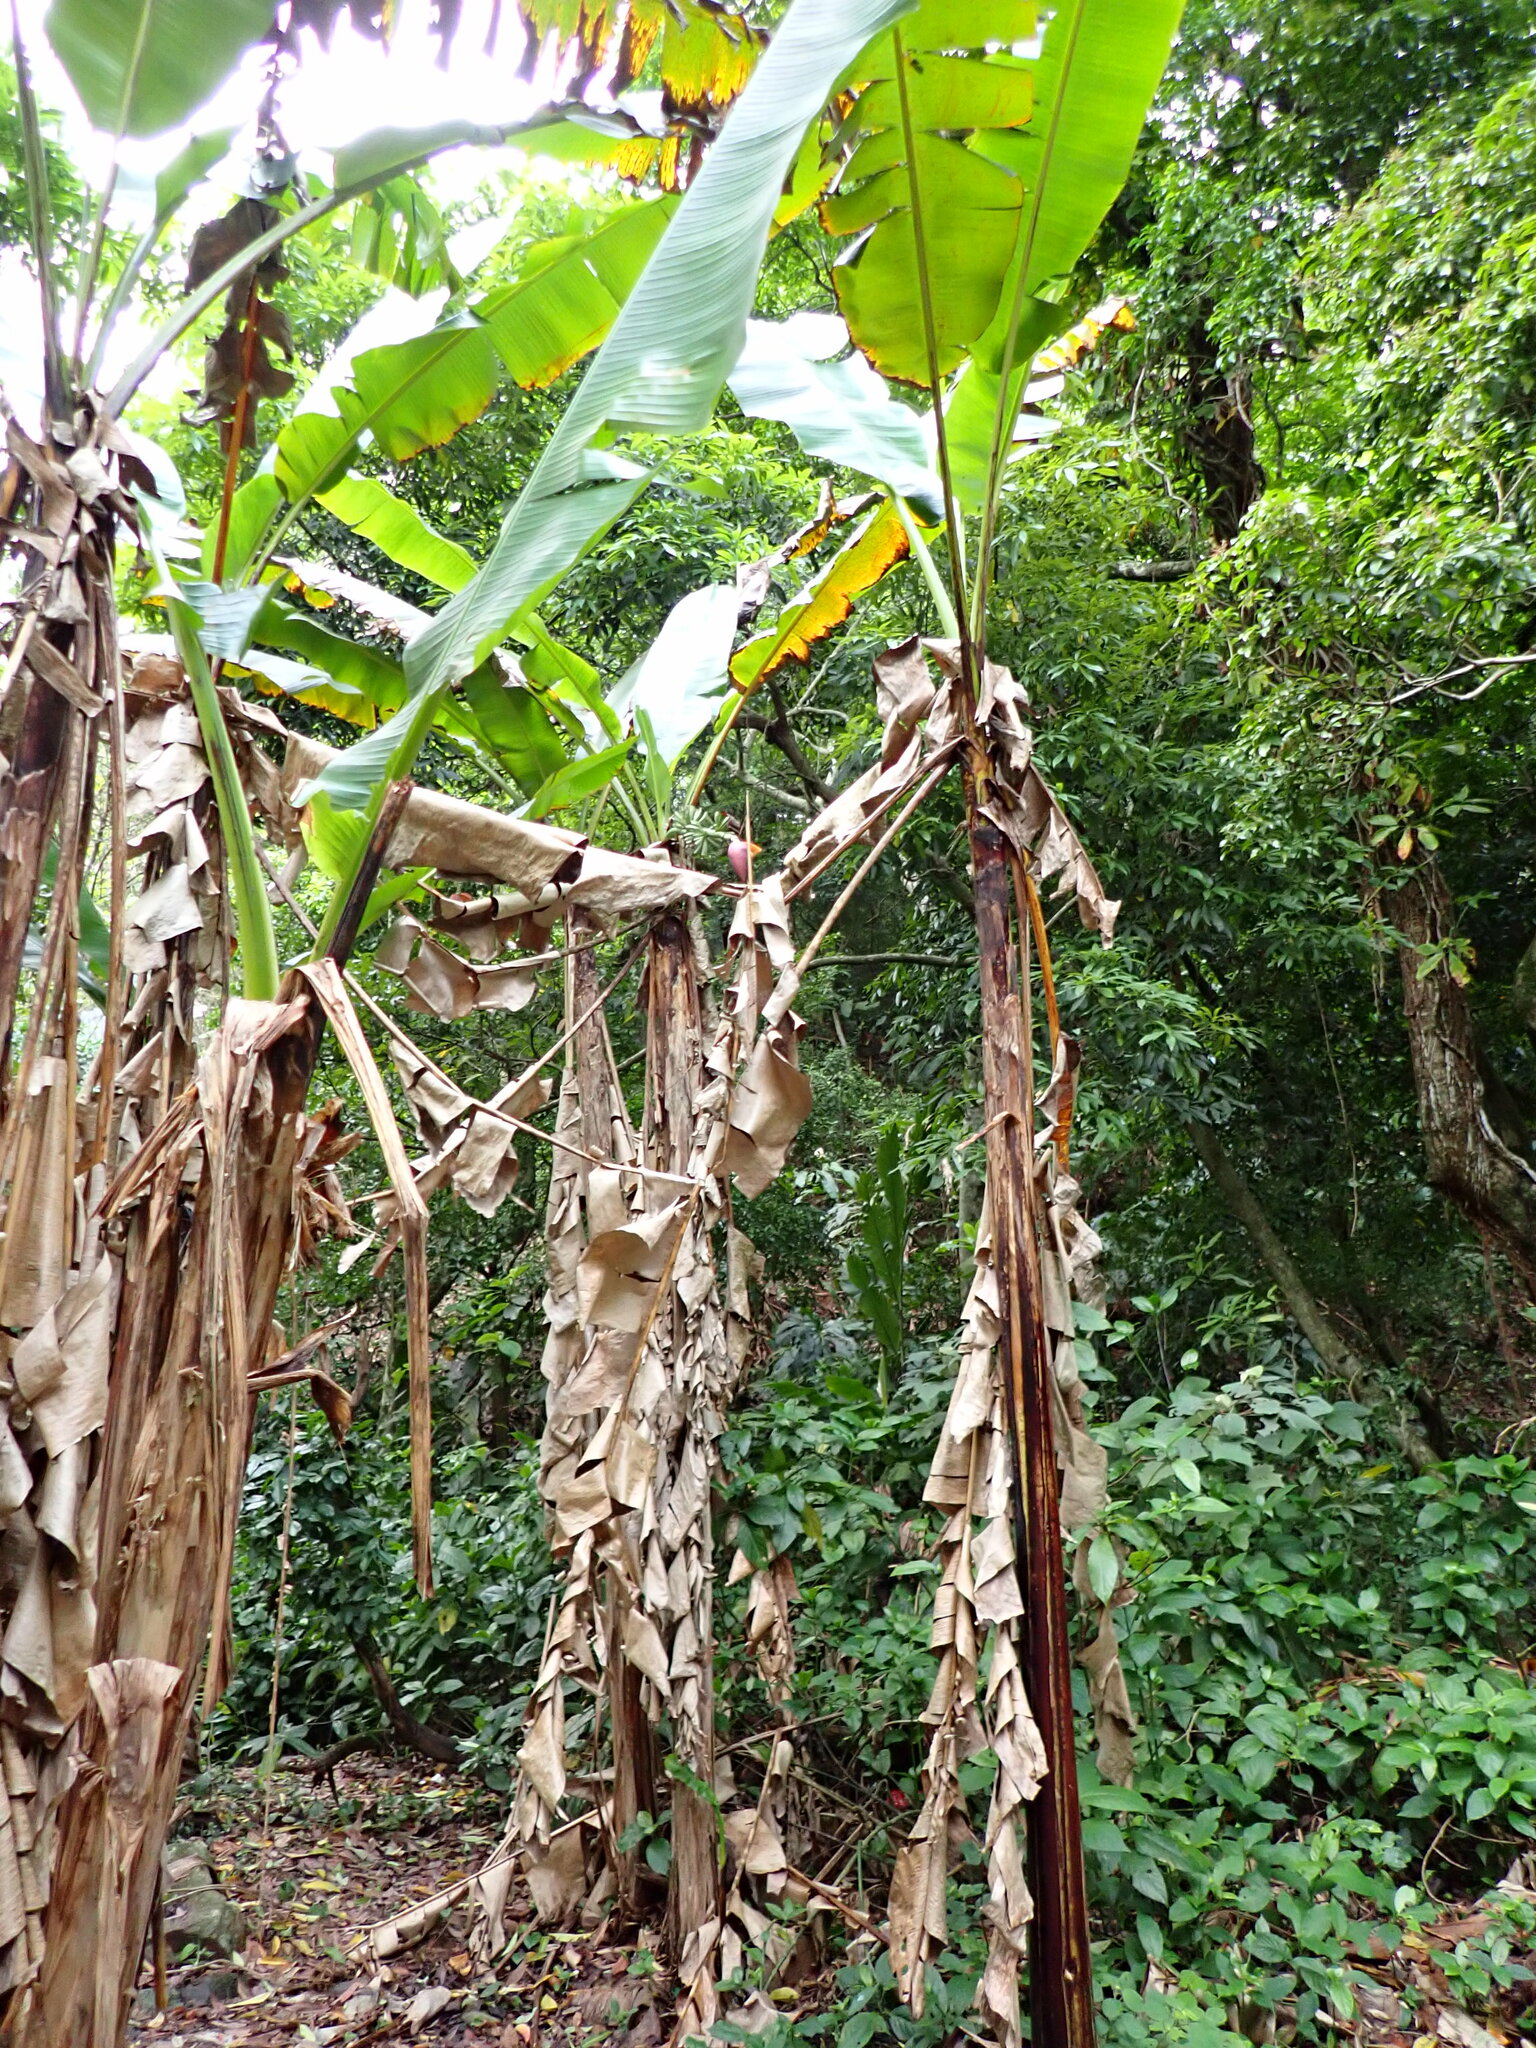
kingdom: Plantae
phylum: Tracheophyta
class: Liliopsida
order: Zingiberales
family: Musaceae
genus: Musa
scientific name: Musa itinerans
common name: Yunnan banana
